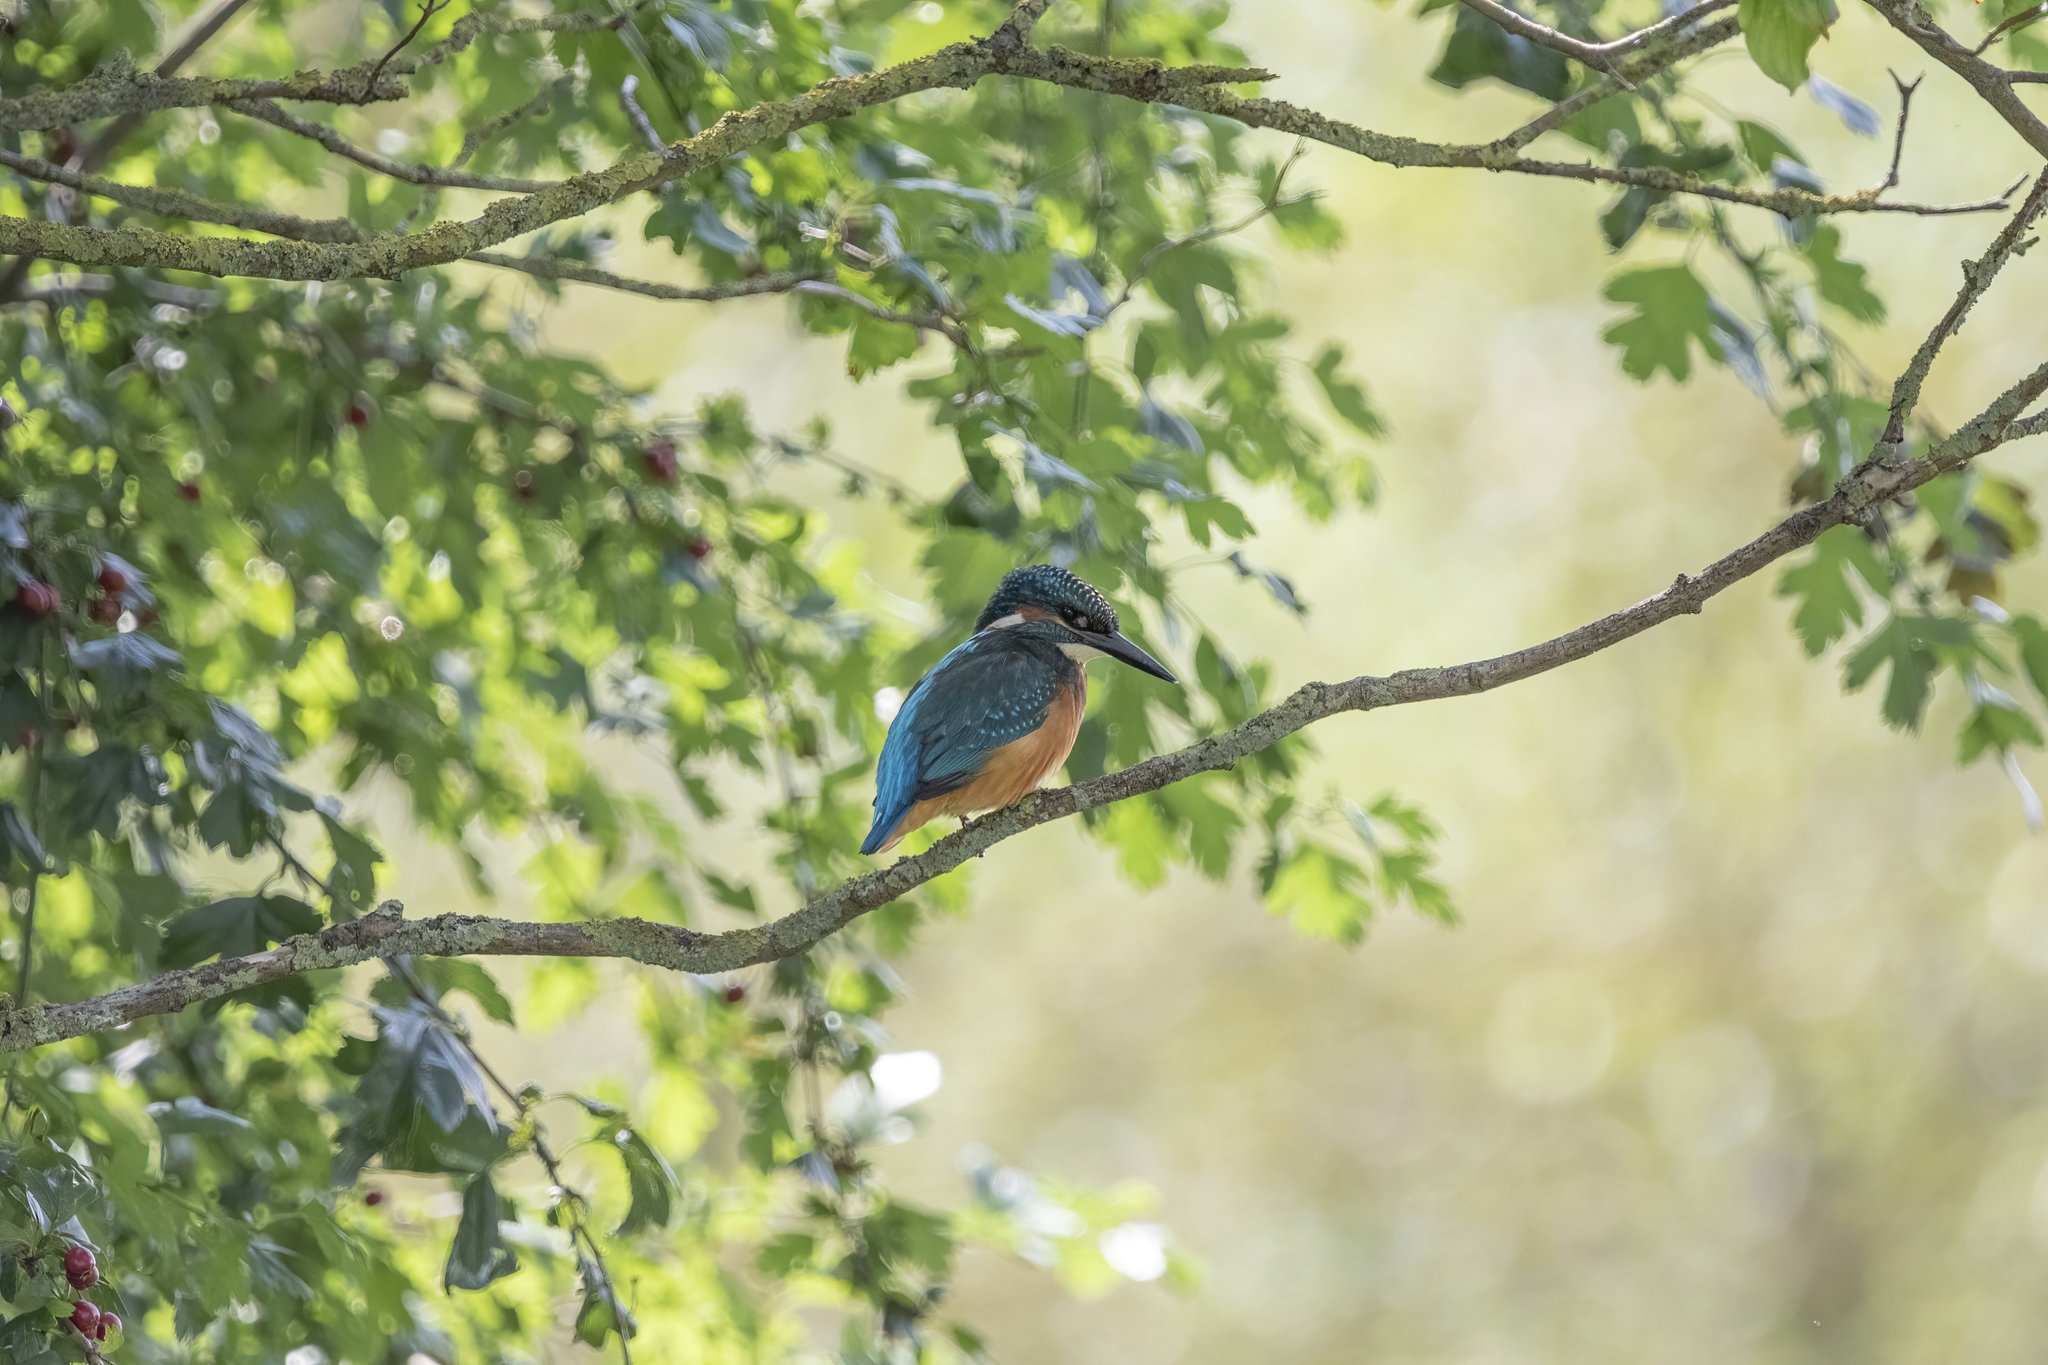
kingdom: Animalia
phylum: Chordata
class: Aves
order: Coraciiformes
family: Alcedinidae
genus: Alcedo
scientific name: Alcedo atthis
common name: Common kingfisher
